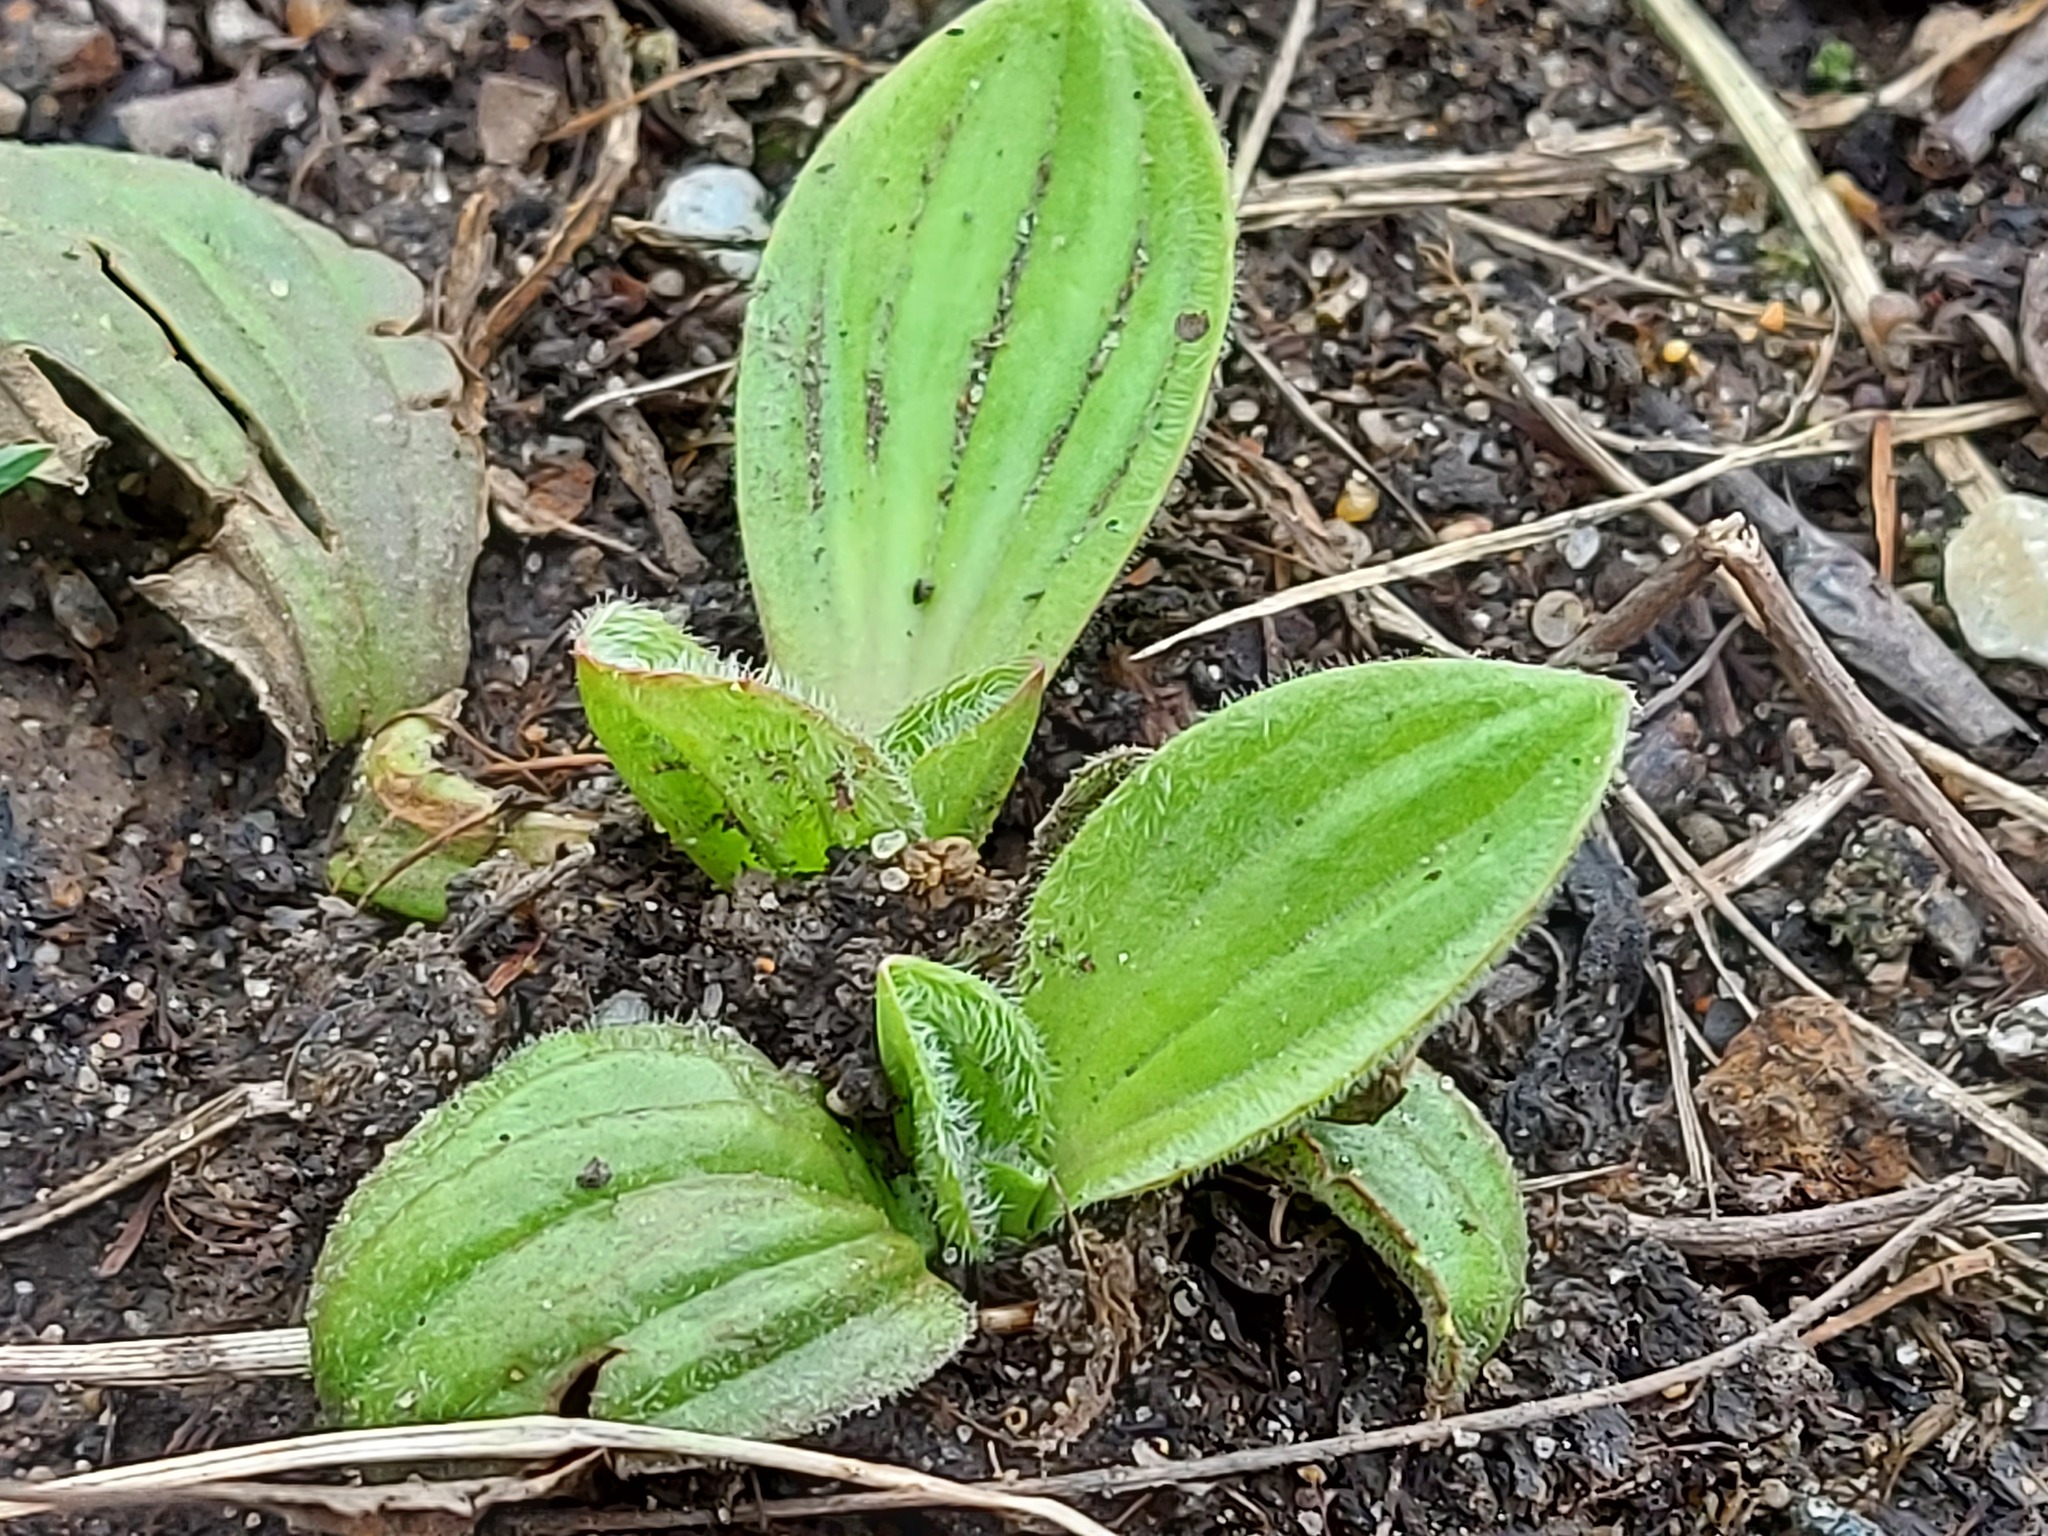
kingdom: Plantae
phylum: Tracheophyta
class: Magnoliopsida
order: Lamiales
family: Plantaginaceae
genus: Plantago
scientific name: Plantago media
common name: Hoary plantain
